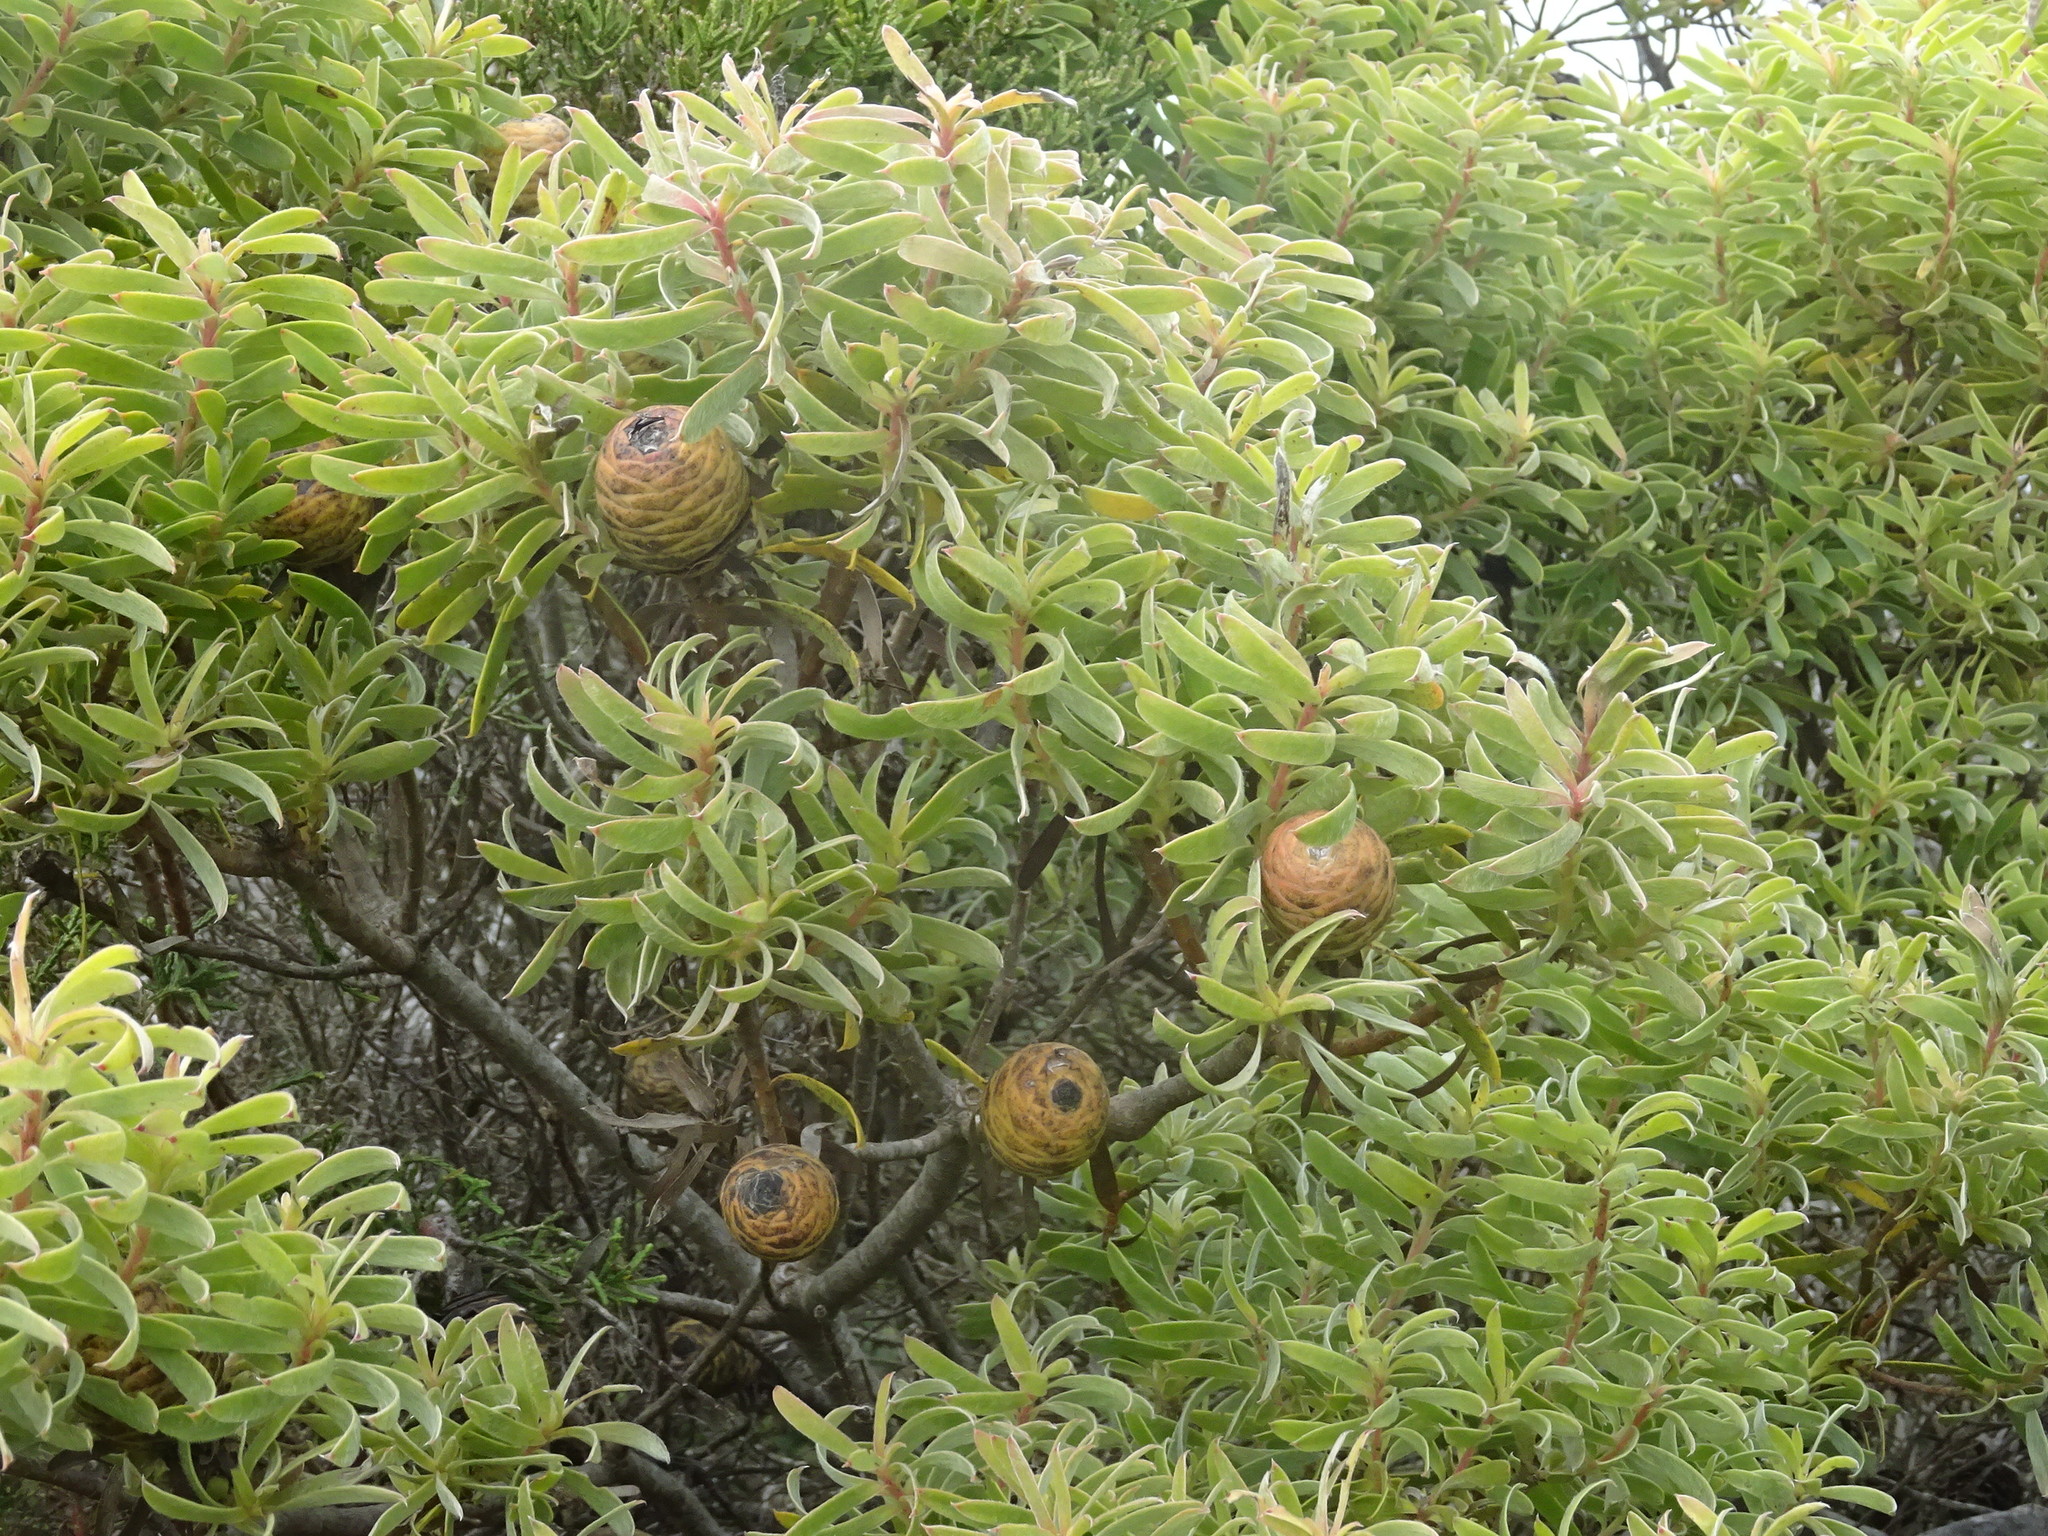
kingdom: Plantae
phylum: Tracheophyta
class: Magnoliopsida
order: Proteales
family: Proteaceae
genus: Leucadendron
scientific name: Leucadendron coniferum
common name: Dune conebush
